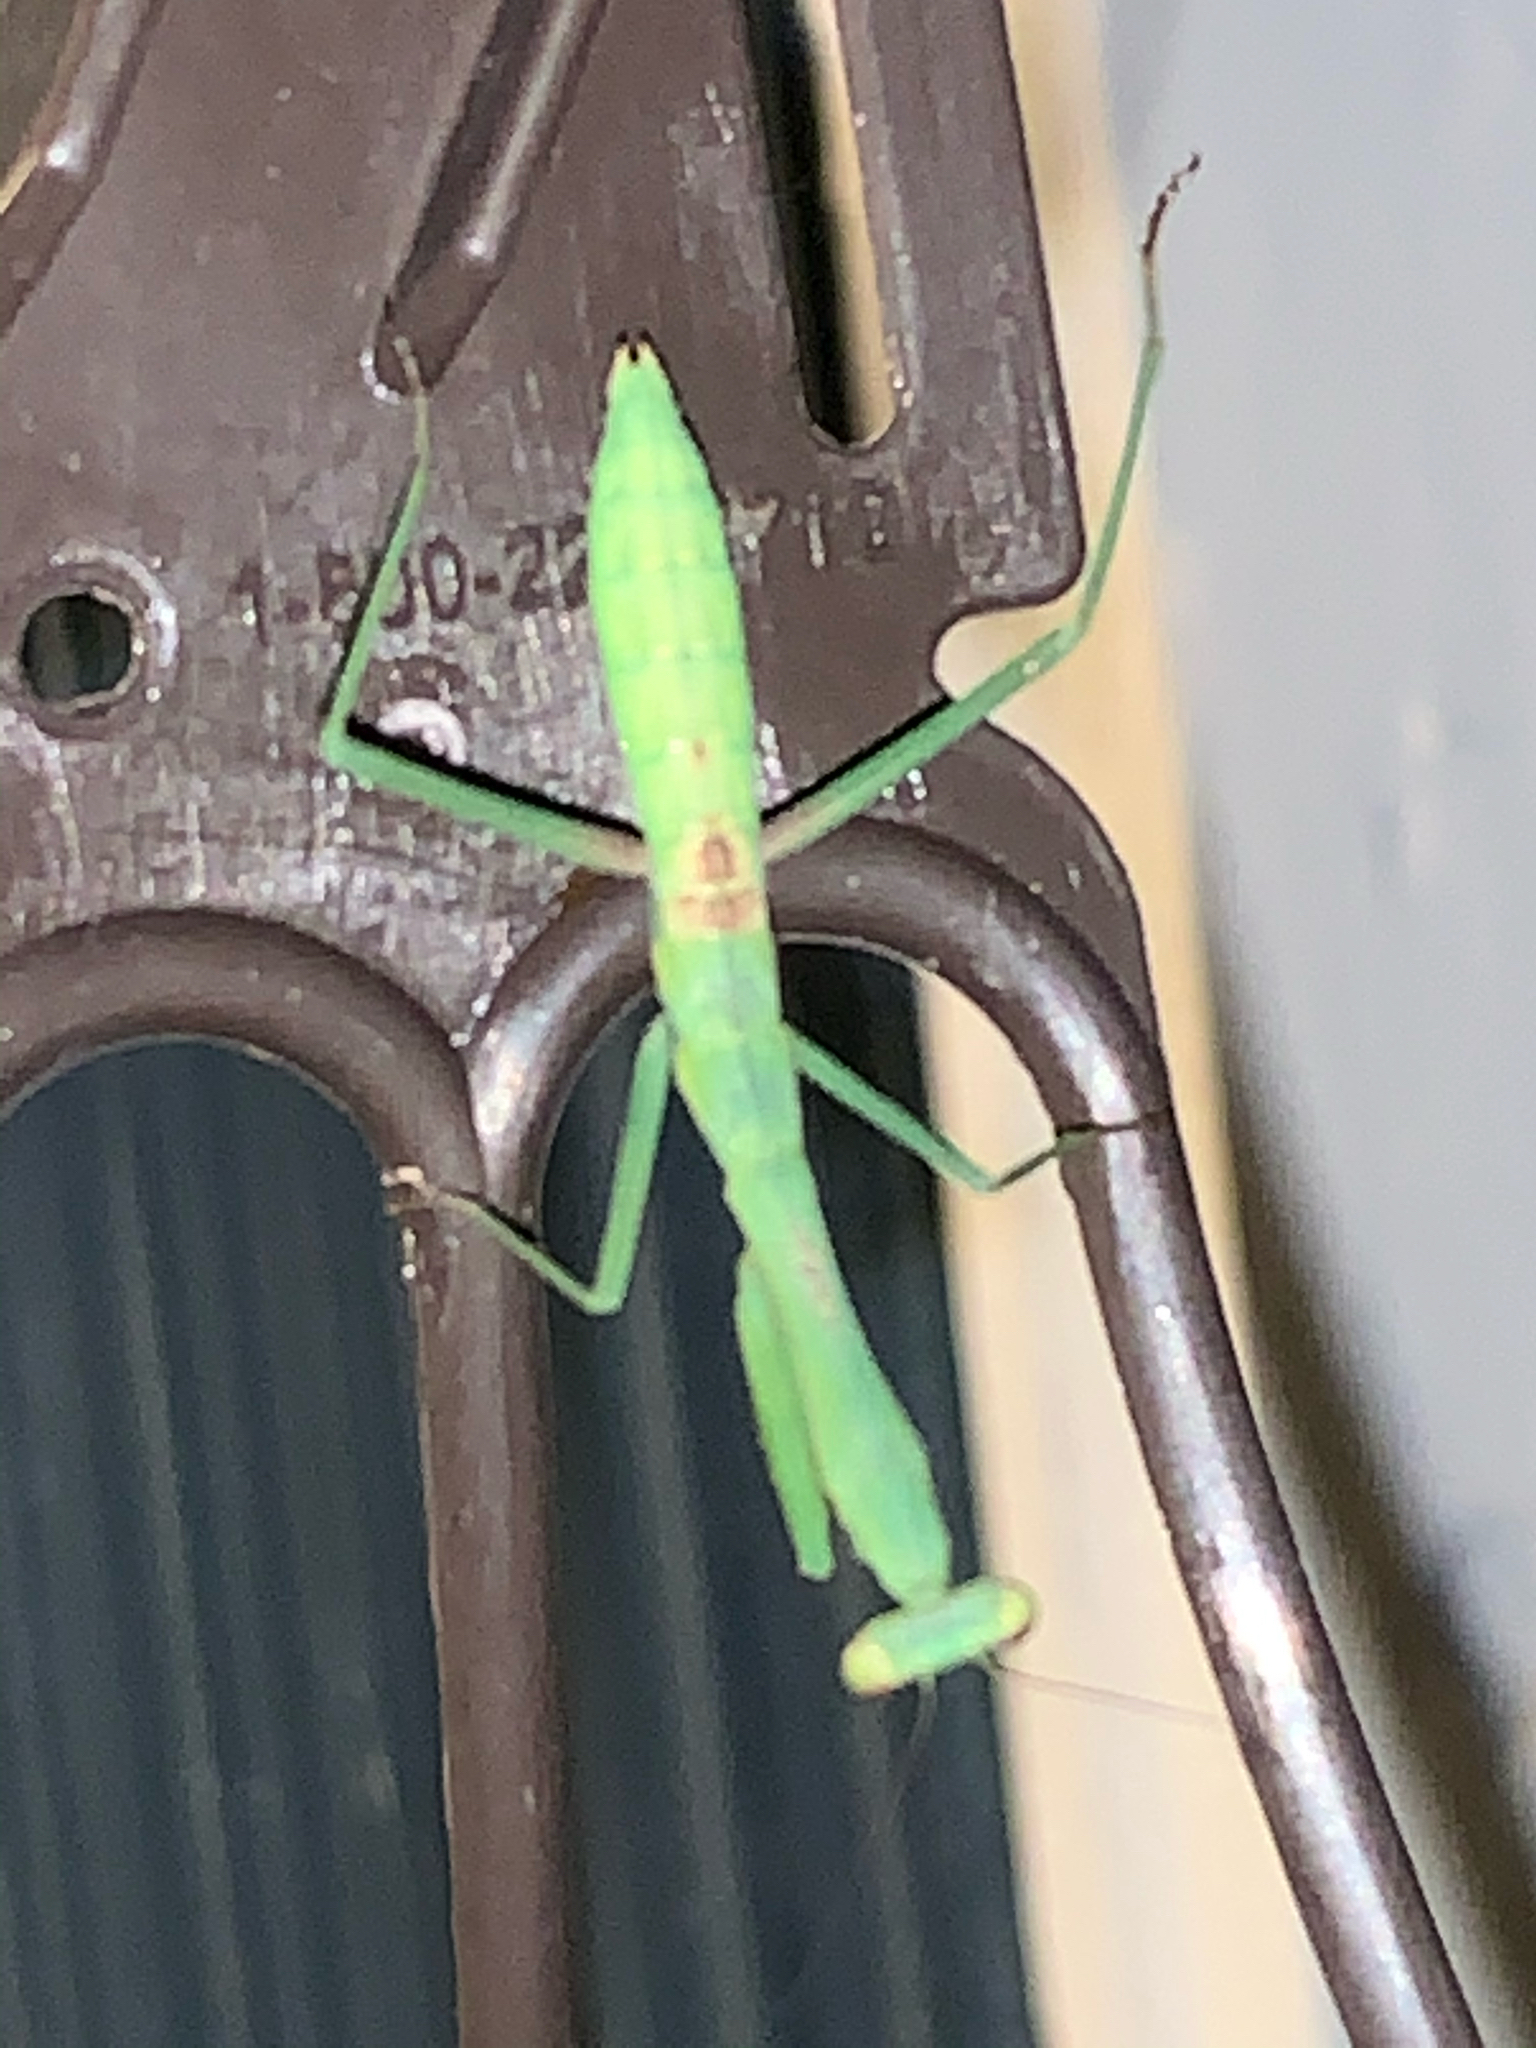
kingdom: Animalia
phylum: Arthropoda
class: Insecta
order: Mantodea
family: Mantidae
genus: Stagmomantis
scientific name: Stagmomantis carolina
